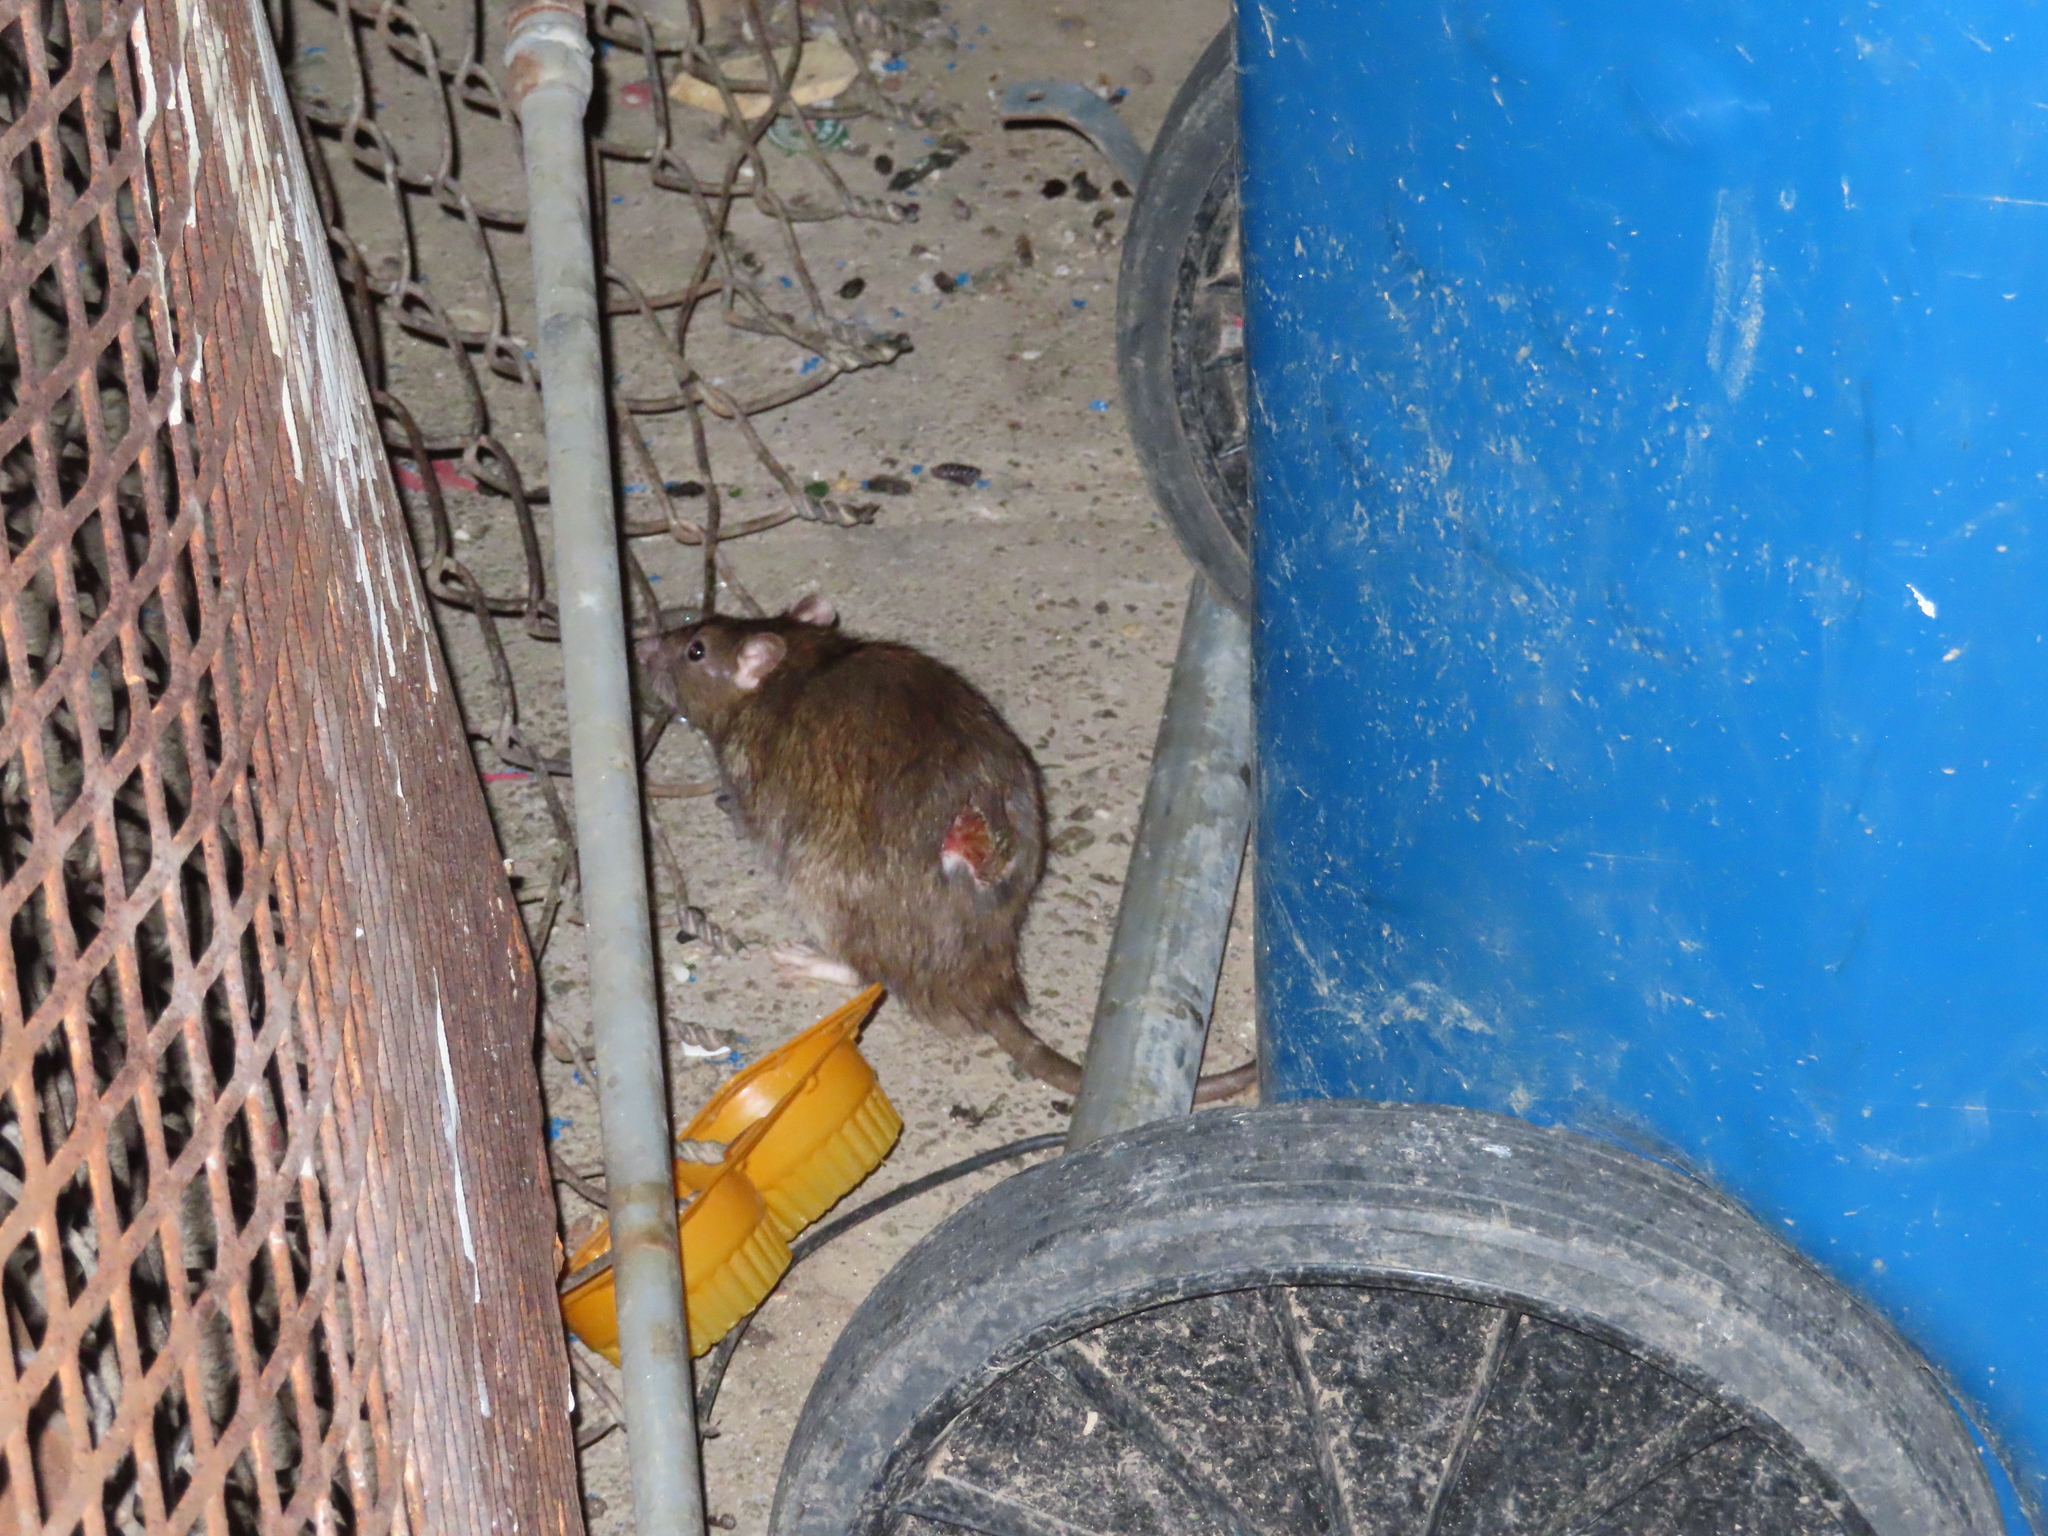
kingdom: Animalia
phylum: Chordata
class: Mammalia
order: Rodentia
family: Muridae
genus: Rattus
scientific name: Rattus norvegicus
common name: Brown rat
